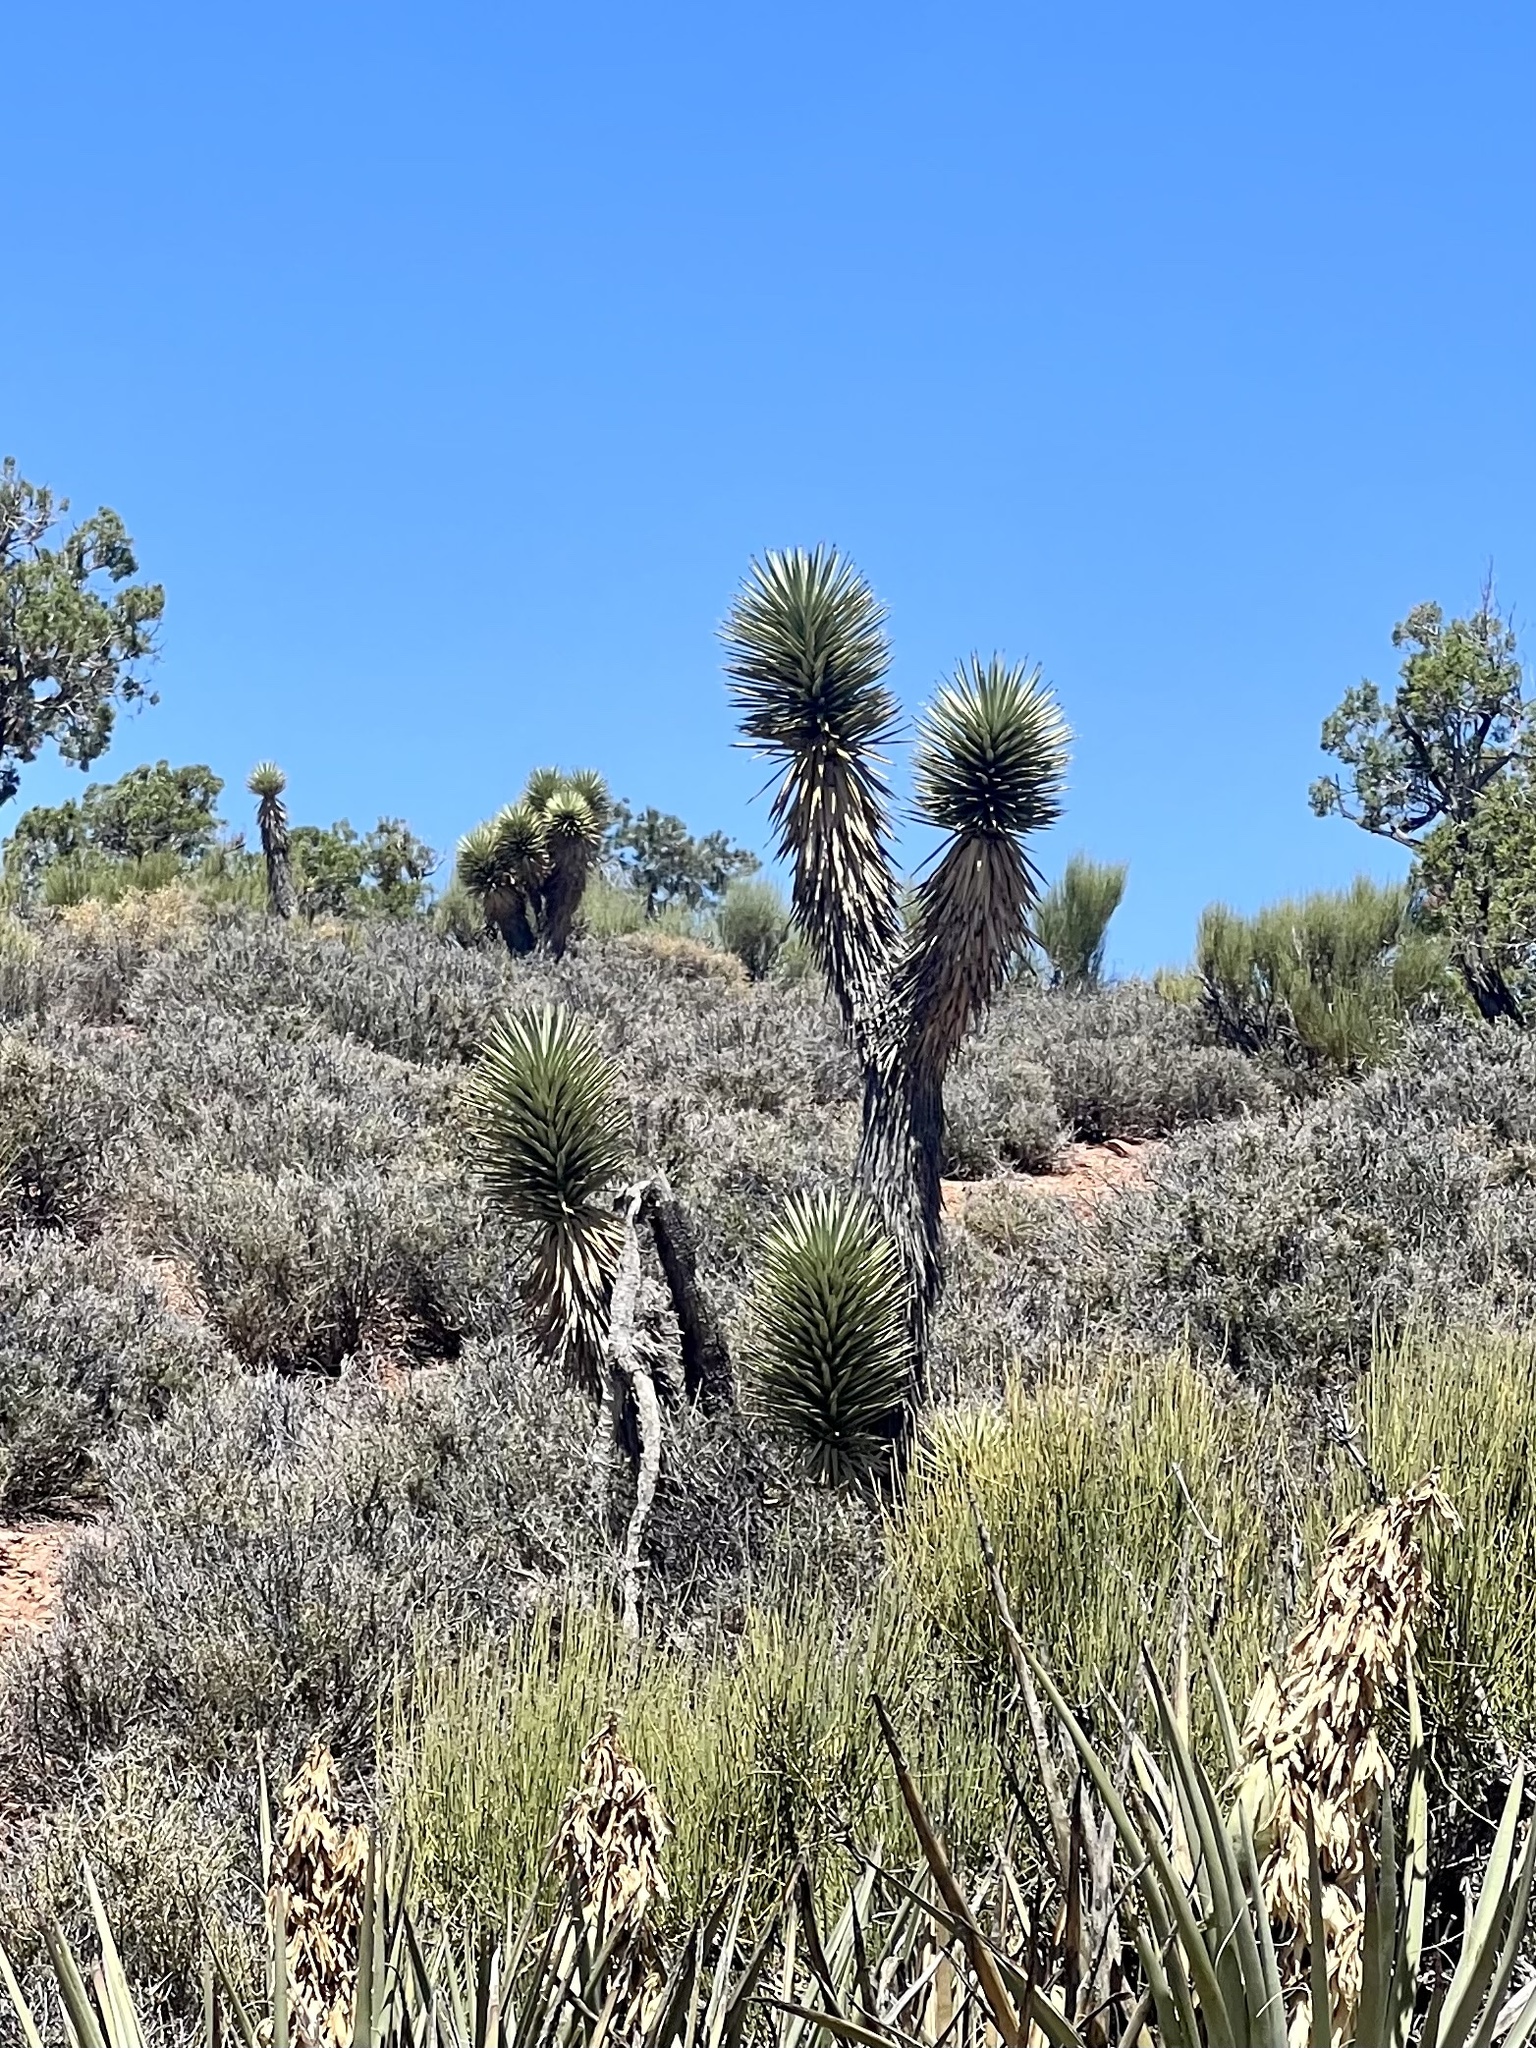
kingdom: Plantae
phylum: Tracheophyta
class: Liliopsida
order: Asparagales
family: Asparagaceae
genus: Yucca
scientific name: Yucca brevifolia
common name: Joshua tree
